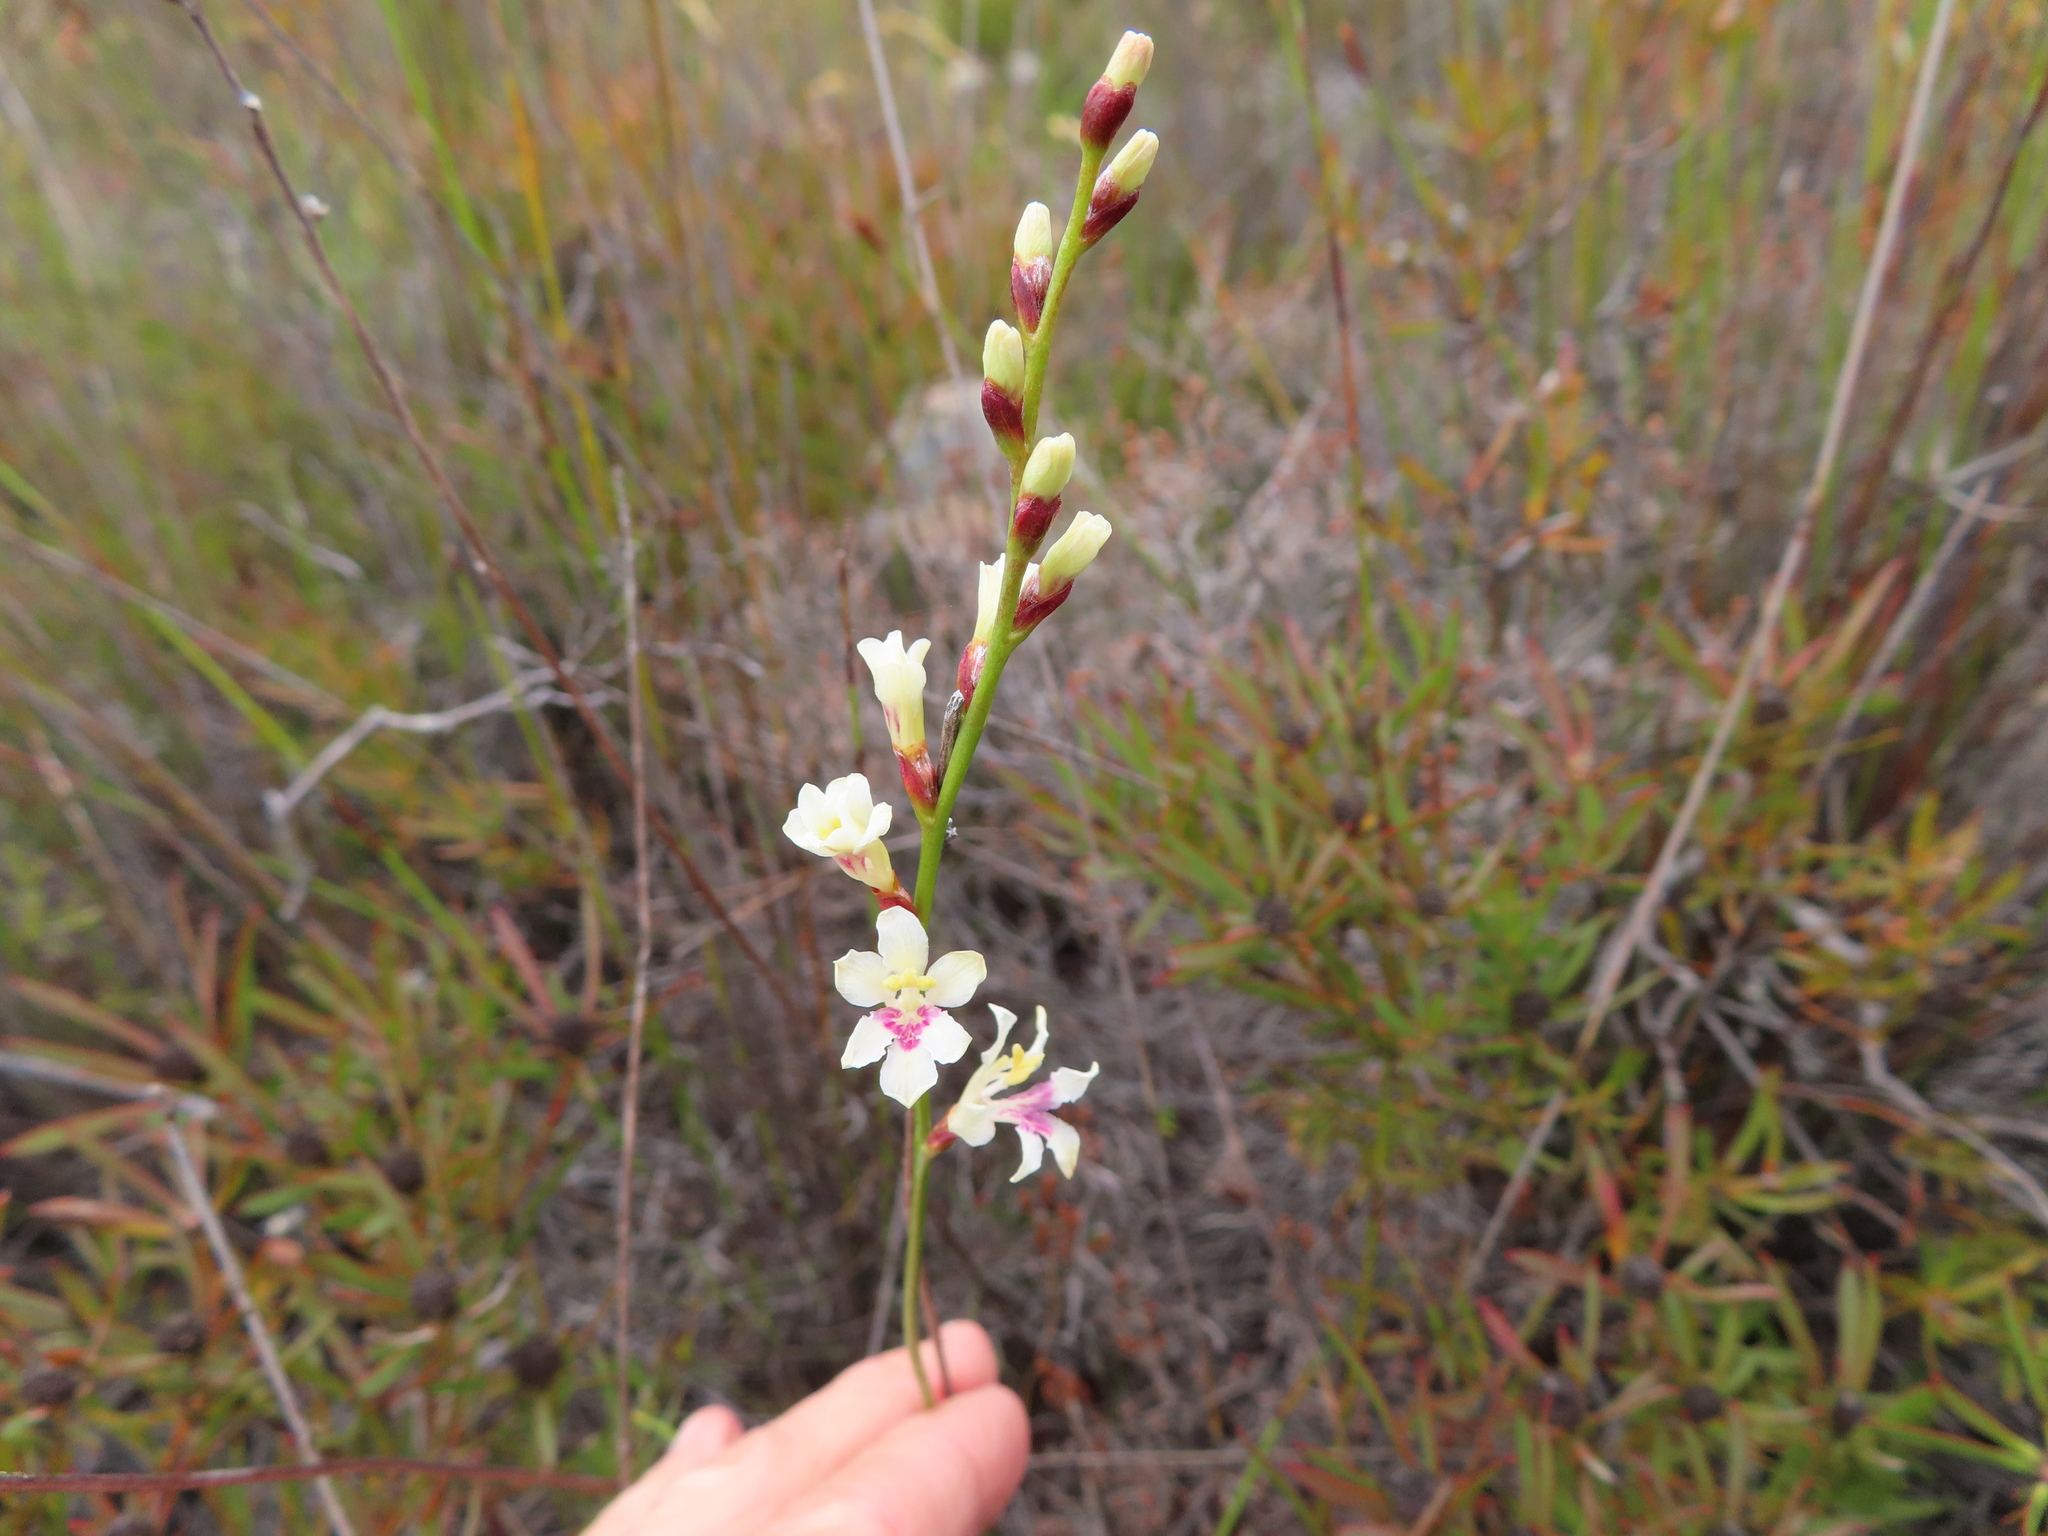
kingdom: Plantae
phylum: Tracheophyta
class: Liliopsida
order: Asparagales
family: Iridaceae
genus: Tritoniopsis
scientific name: Tritoniopsis unguicularis
